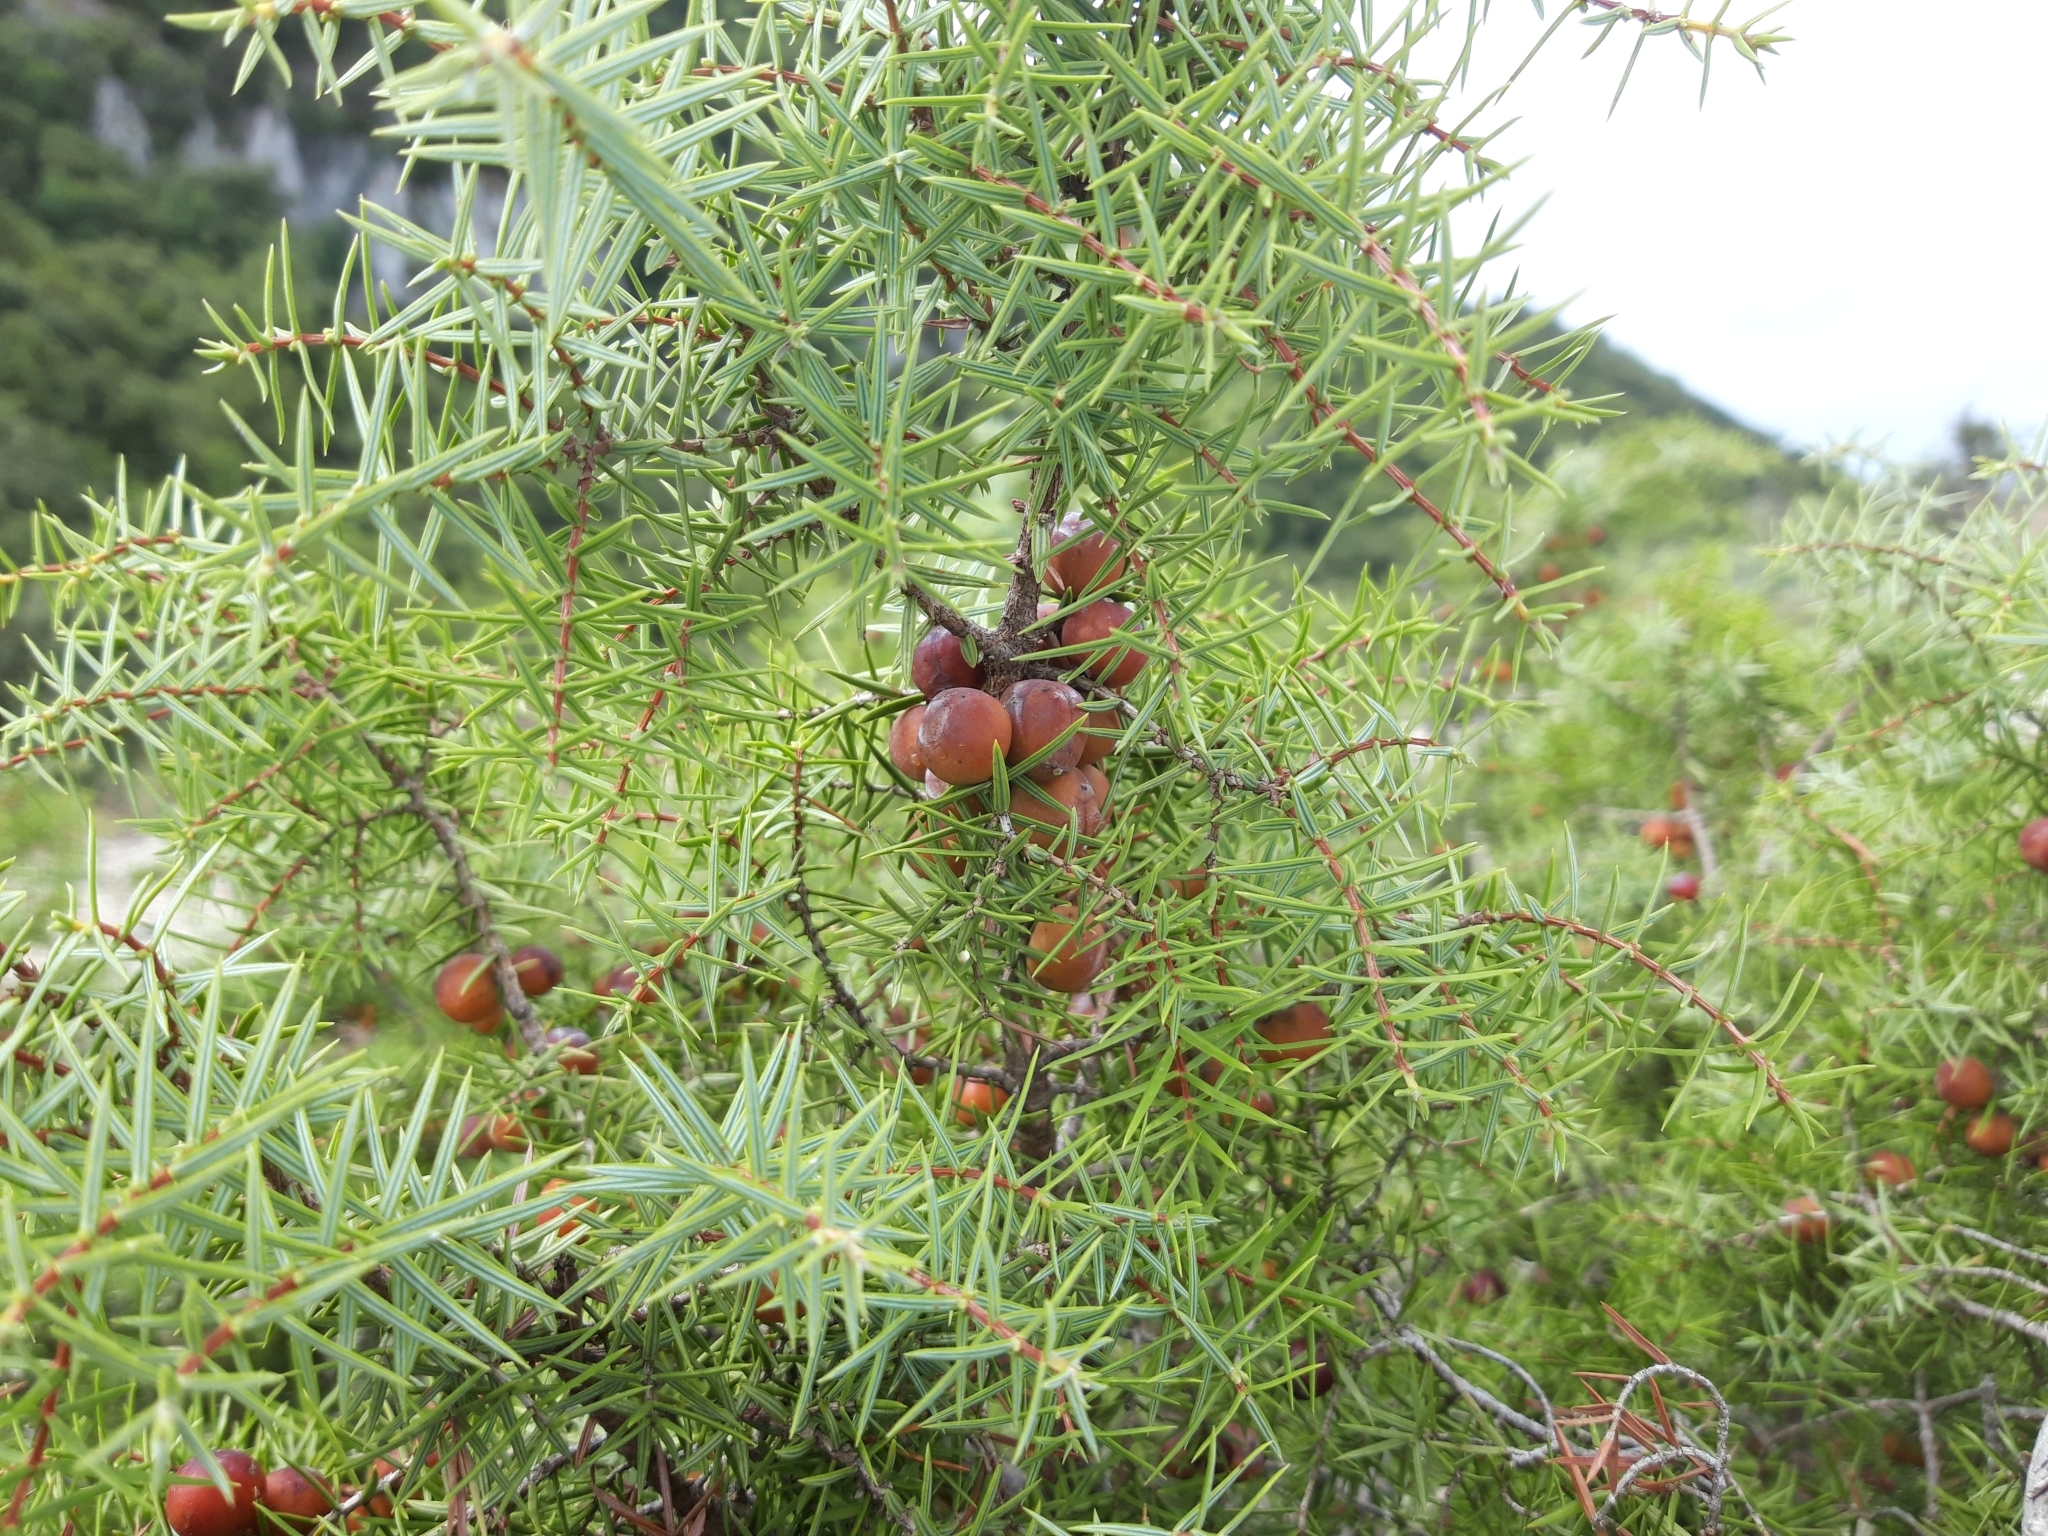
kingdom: Plantae
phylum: Tracheophyta
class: Pinopsida
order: Pinales
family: Cupressaceae
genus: Juniperus
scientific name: Juniperus oxycedrus
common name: Prickly juniper
